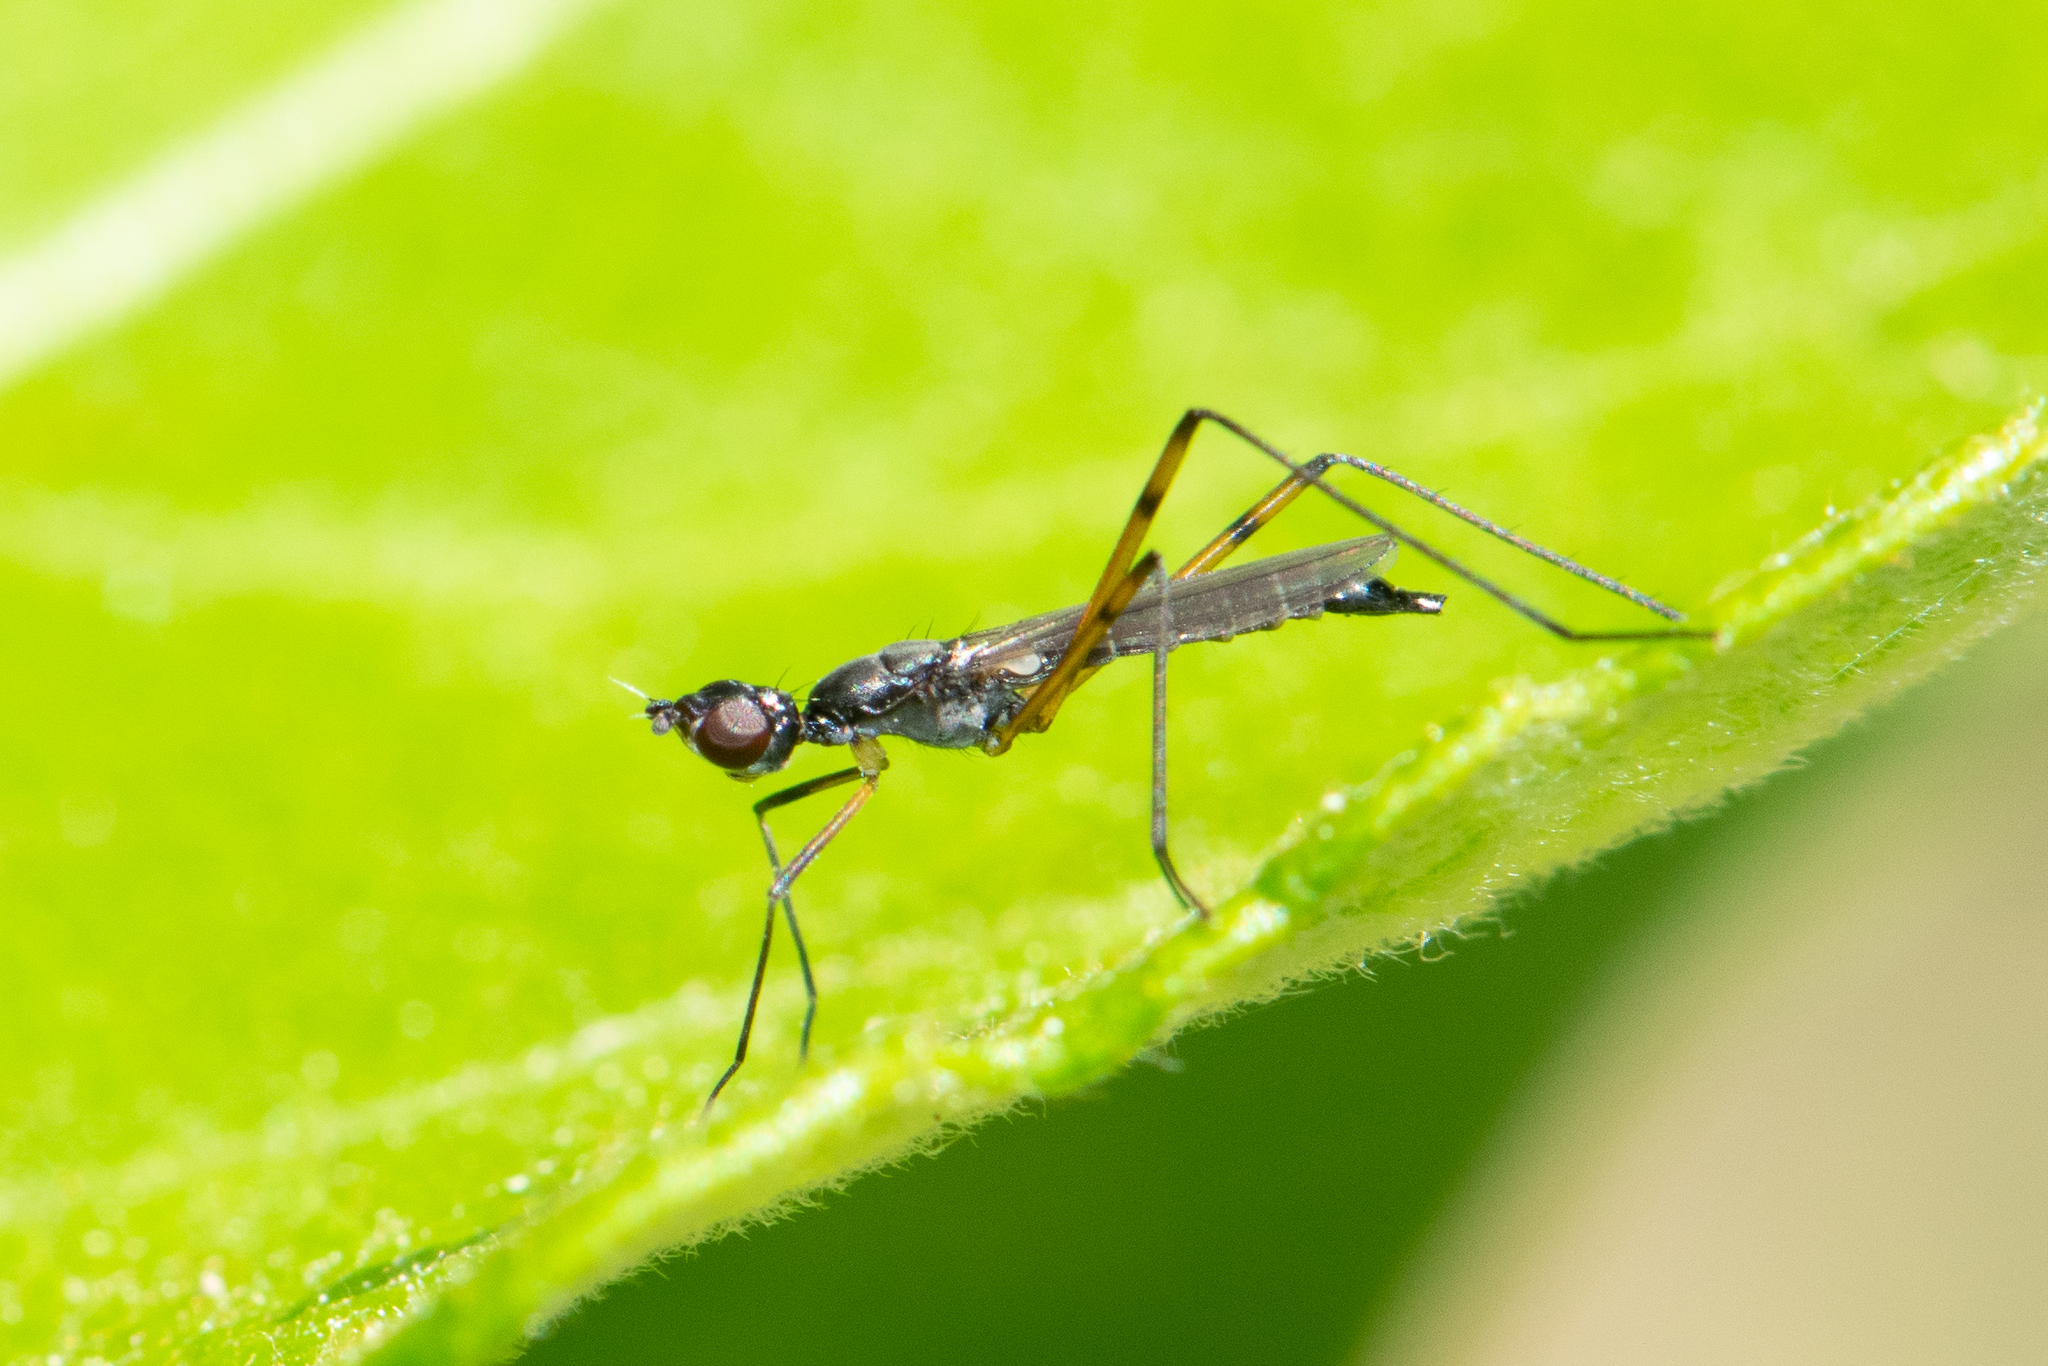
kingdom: Animalia
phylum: Arthropoda
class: Insecta
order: Diptera
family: Micropezidae
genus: Micropeza
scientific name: Micropeza corrigiolata
